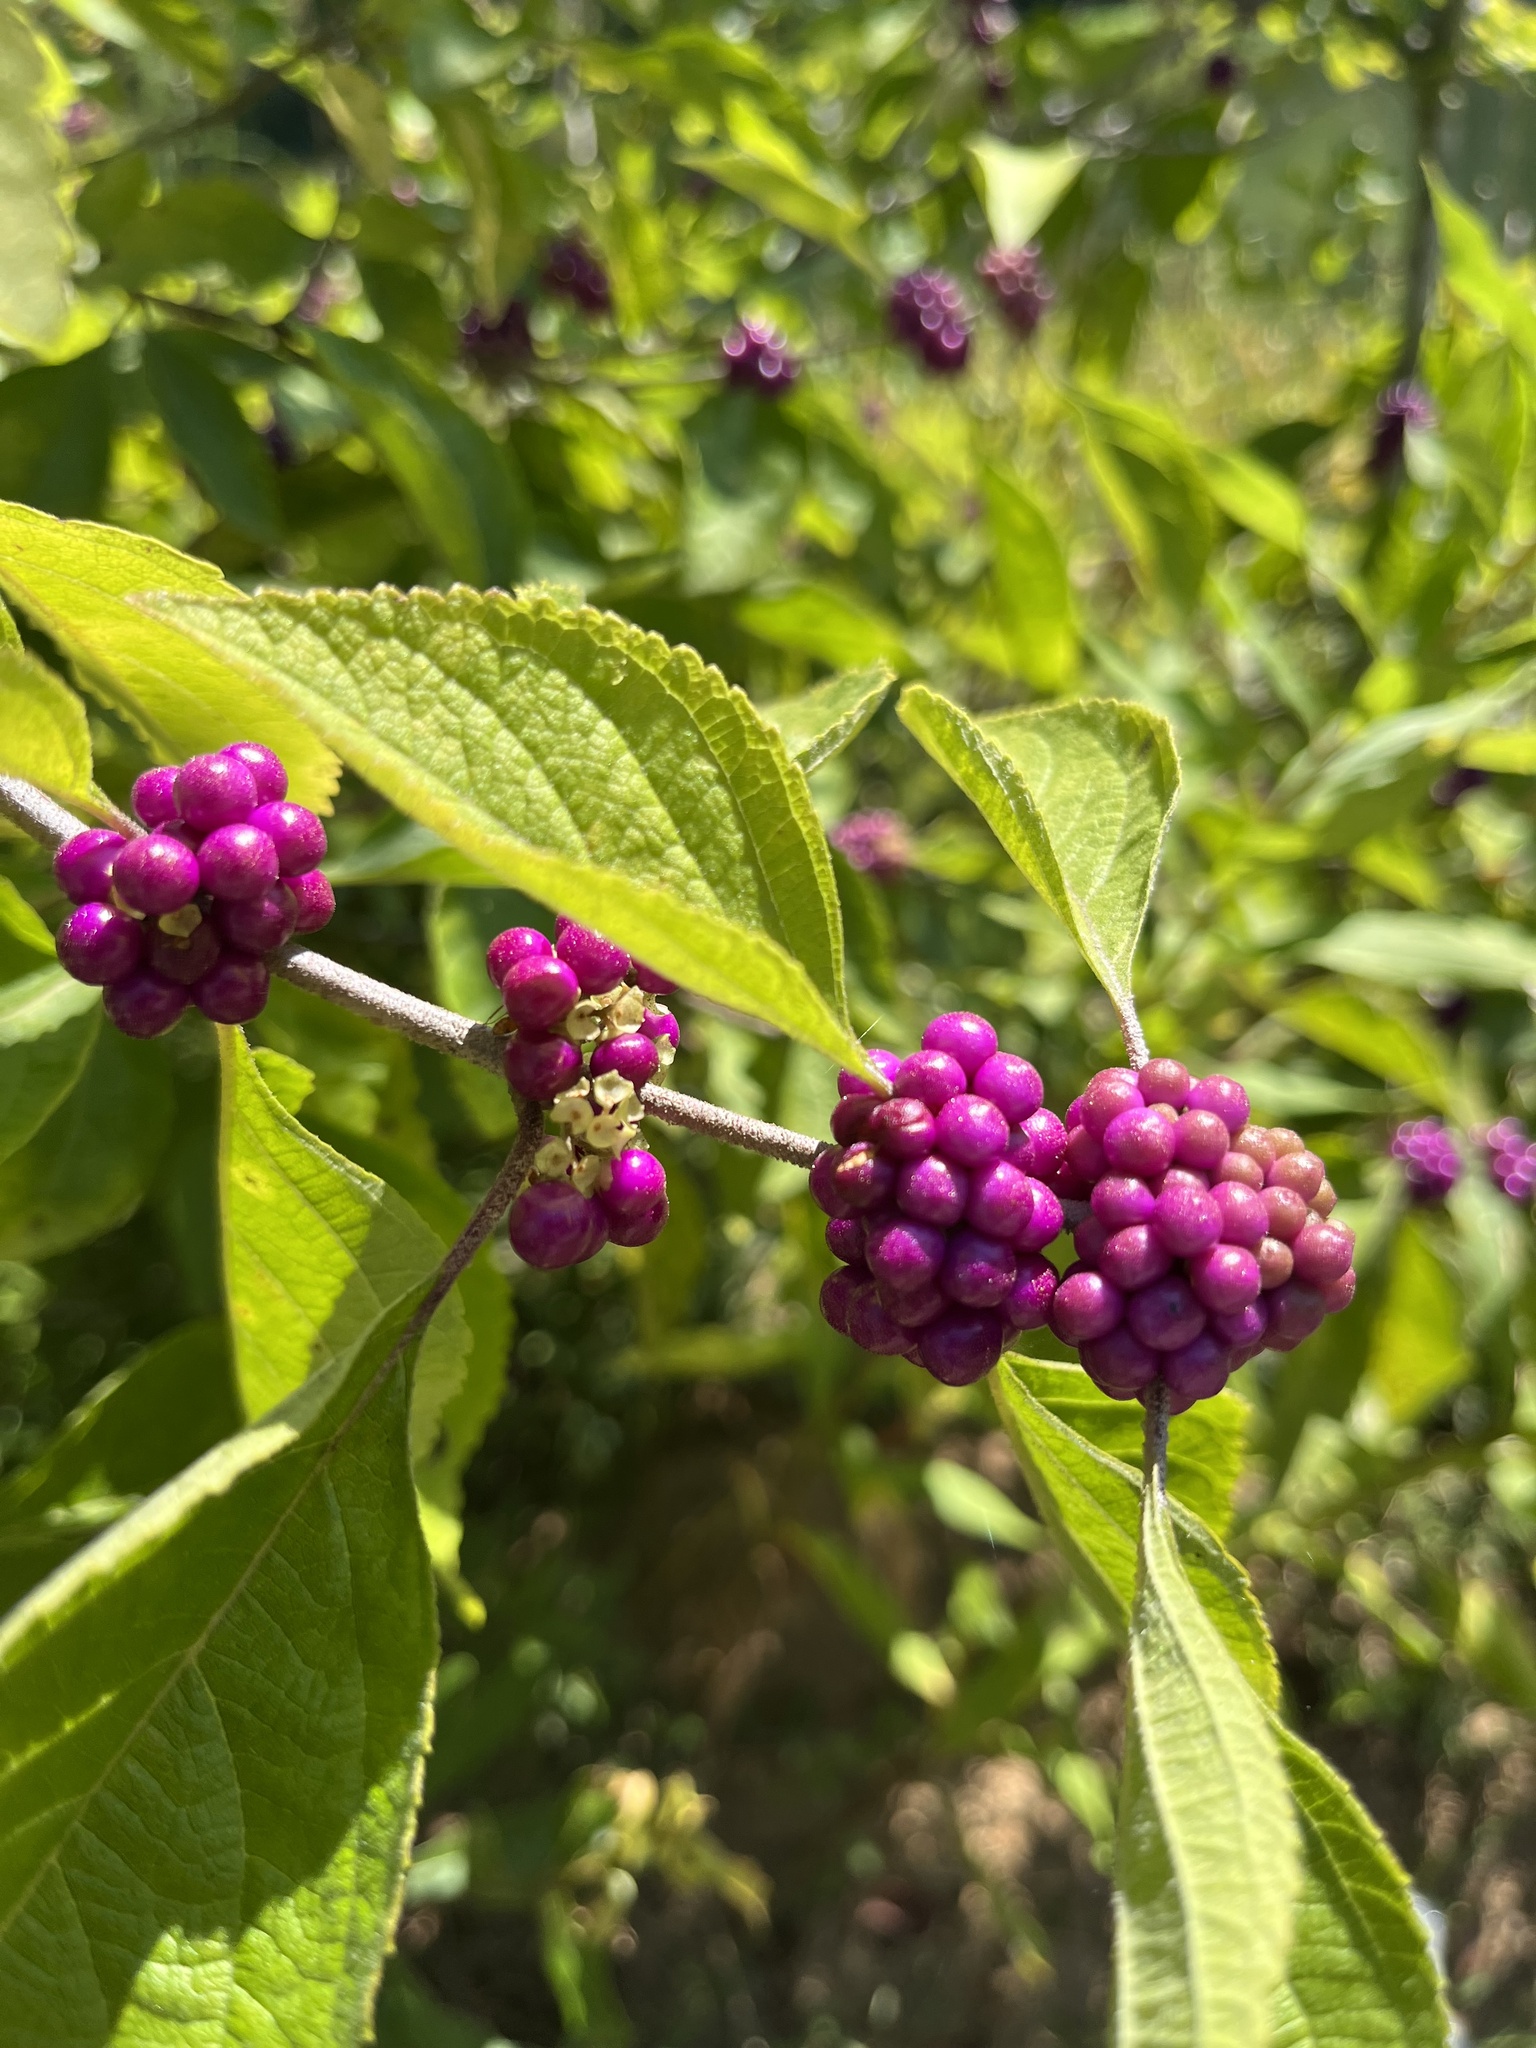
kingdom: Plantae
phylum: Tracheophyta
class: Magnoliopsida
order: Lamiales
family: Lamiaceae
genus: Callicarpa
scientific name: Callicarpa americana
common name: American beautyberry
